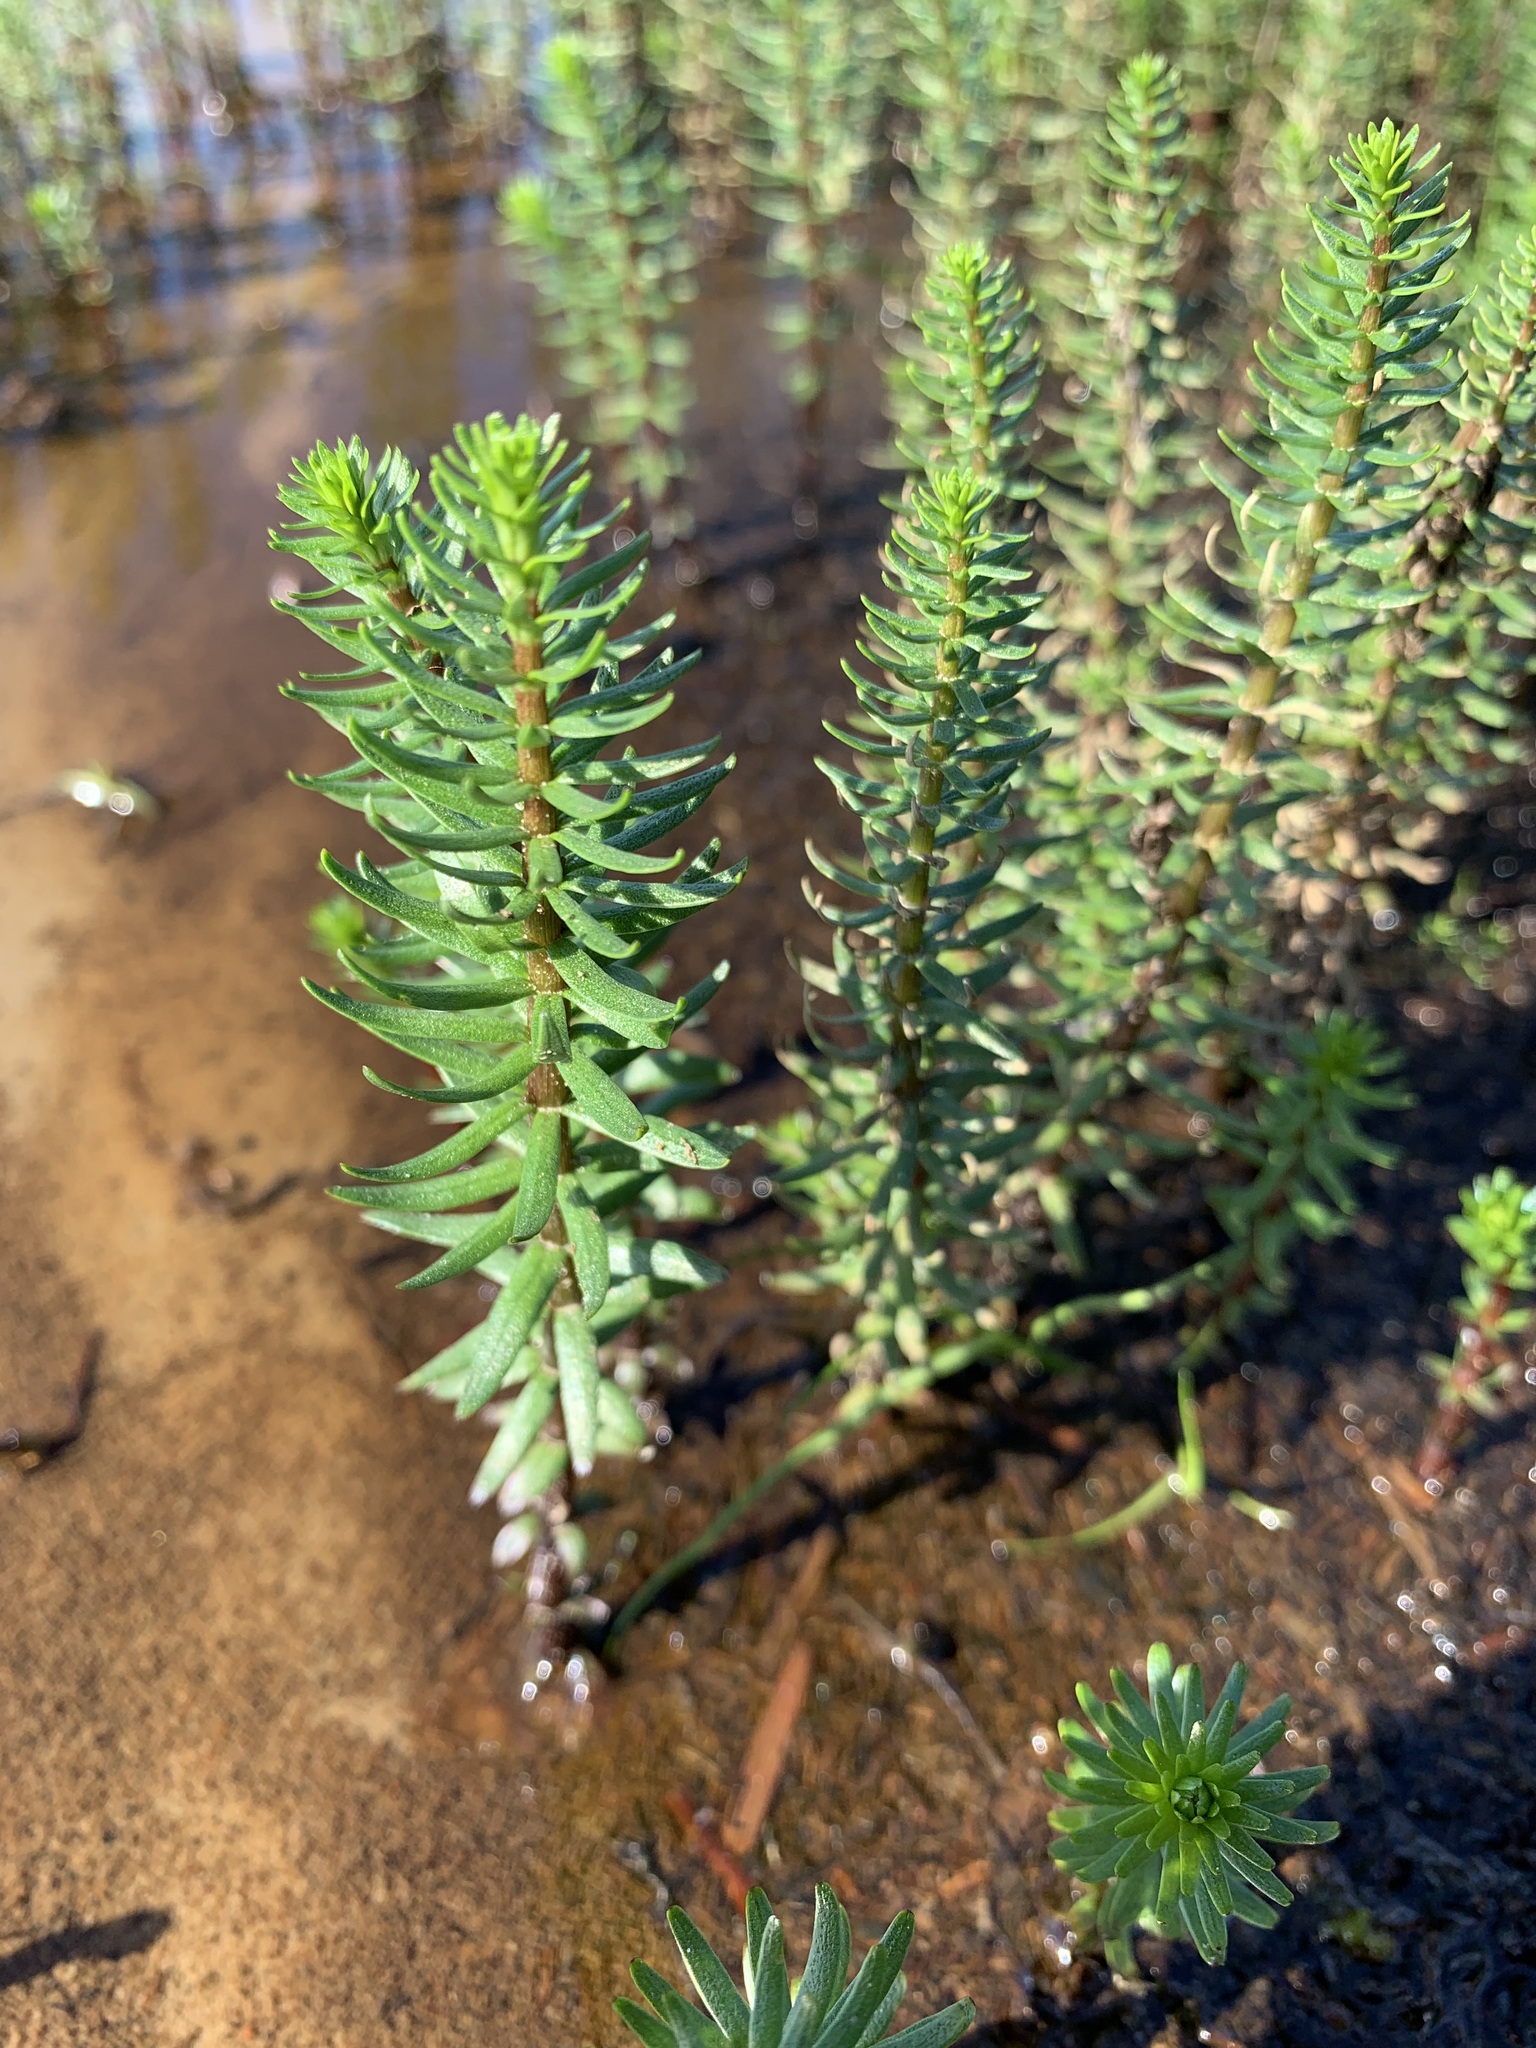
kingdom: Plantae
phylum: Tracheophyta
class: Magnoliopsida
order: Lamiales
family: Plantaginaceae
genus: Hippuris
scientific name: Hippuris lanceolata
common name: Lance-leaved mare's-tail
